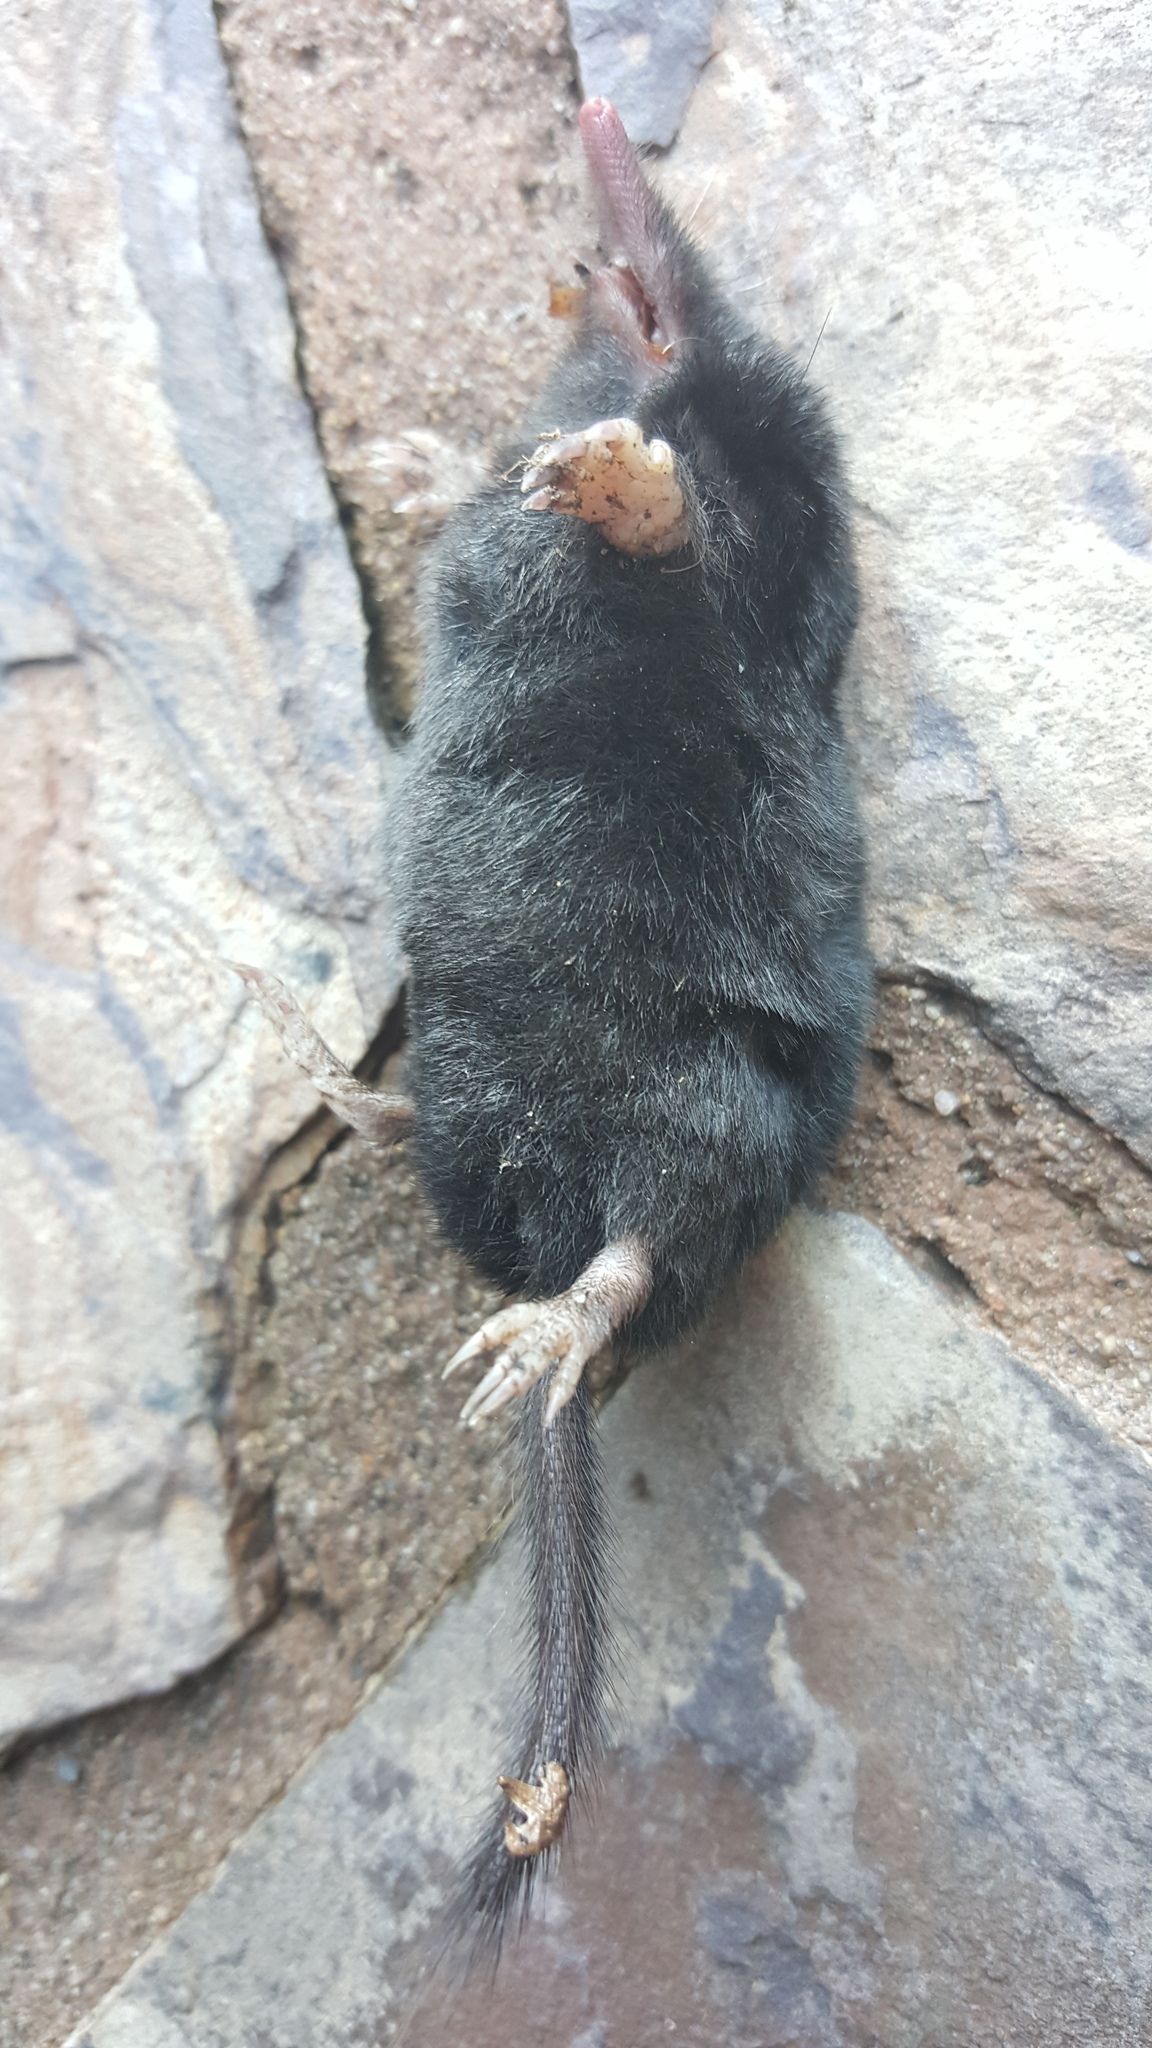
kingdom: Animalia
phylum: Chordata
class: Mammalia
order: Soricomorpha
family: Talpidae
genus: Neurotrichus
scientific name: Neurotrichus gibbsii
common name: American shrew mole
